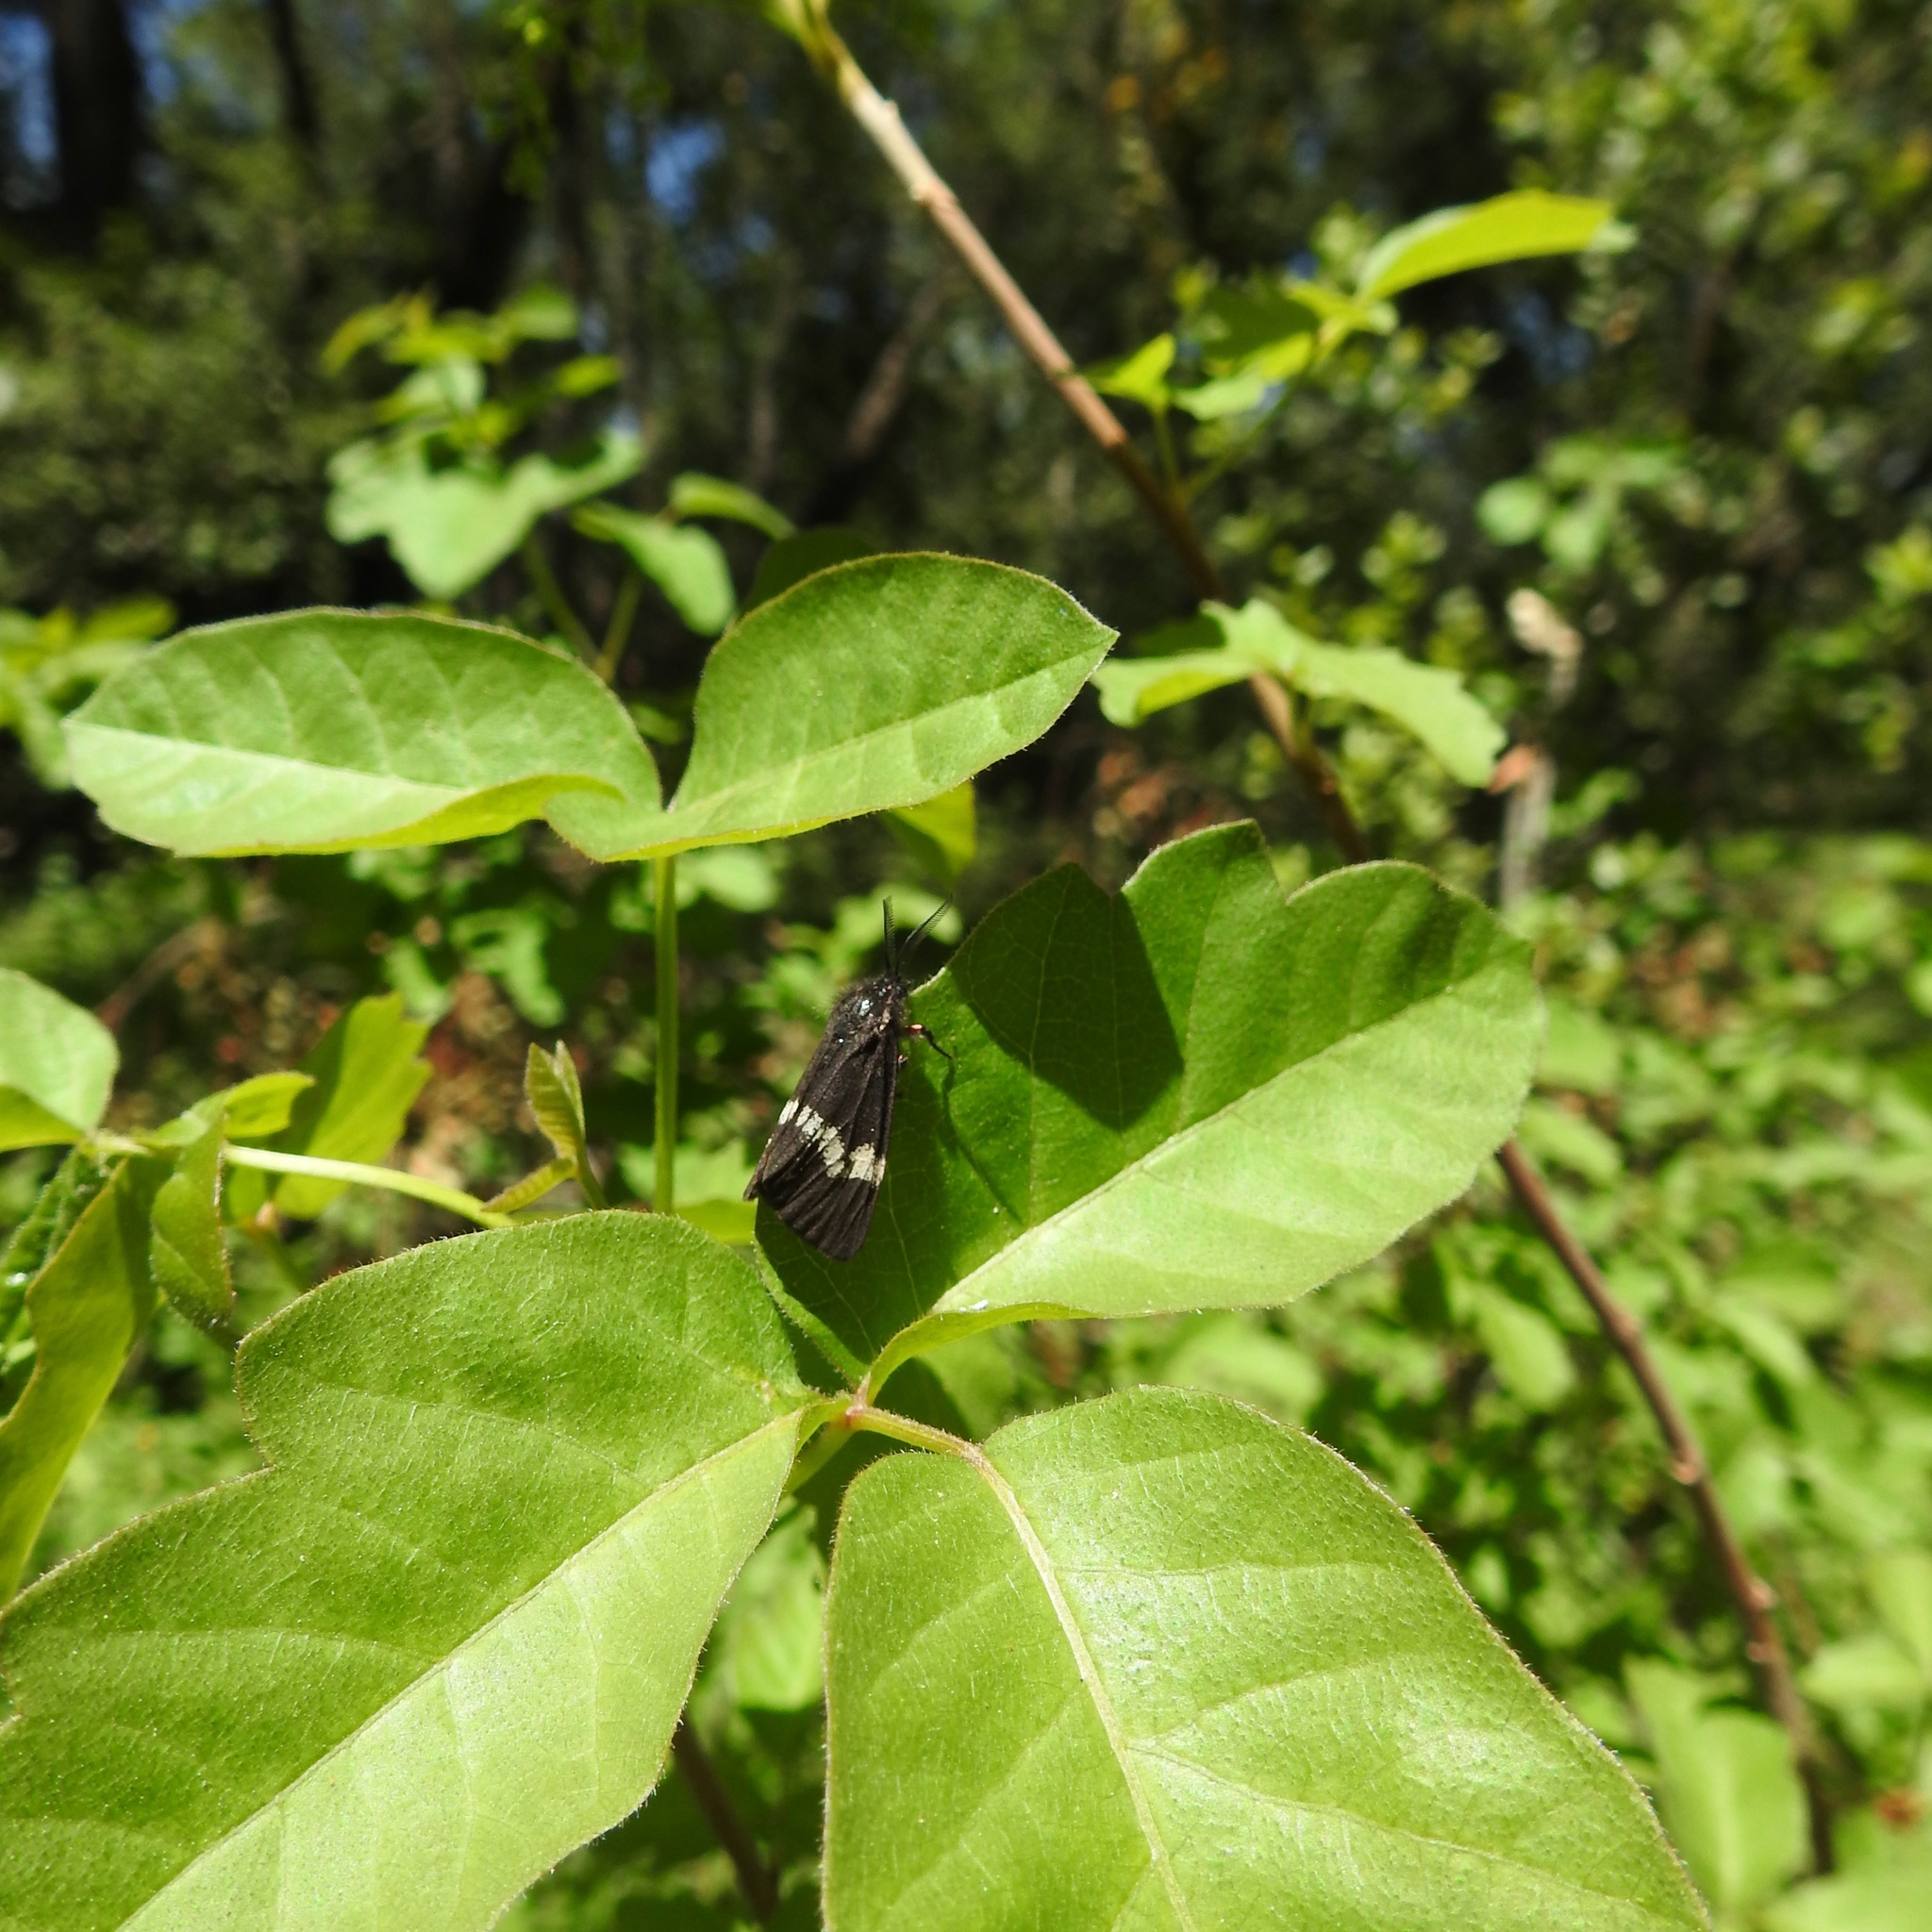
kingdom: Plantae
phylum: Tracheophyta
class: Magnoliopsida
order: Sapindales
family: Anacardiaceae
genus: Toxicodendron
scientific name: Toxicodendron diversilobum
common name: Pacific poison-oak
